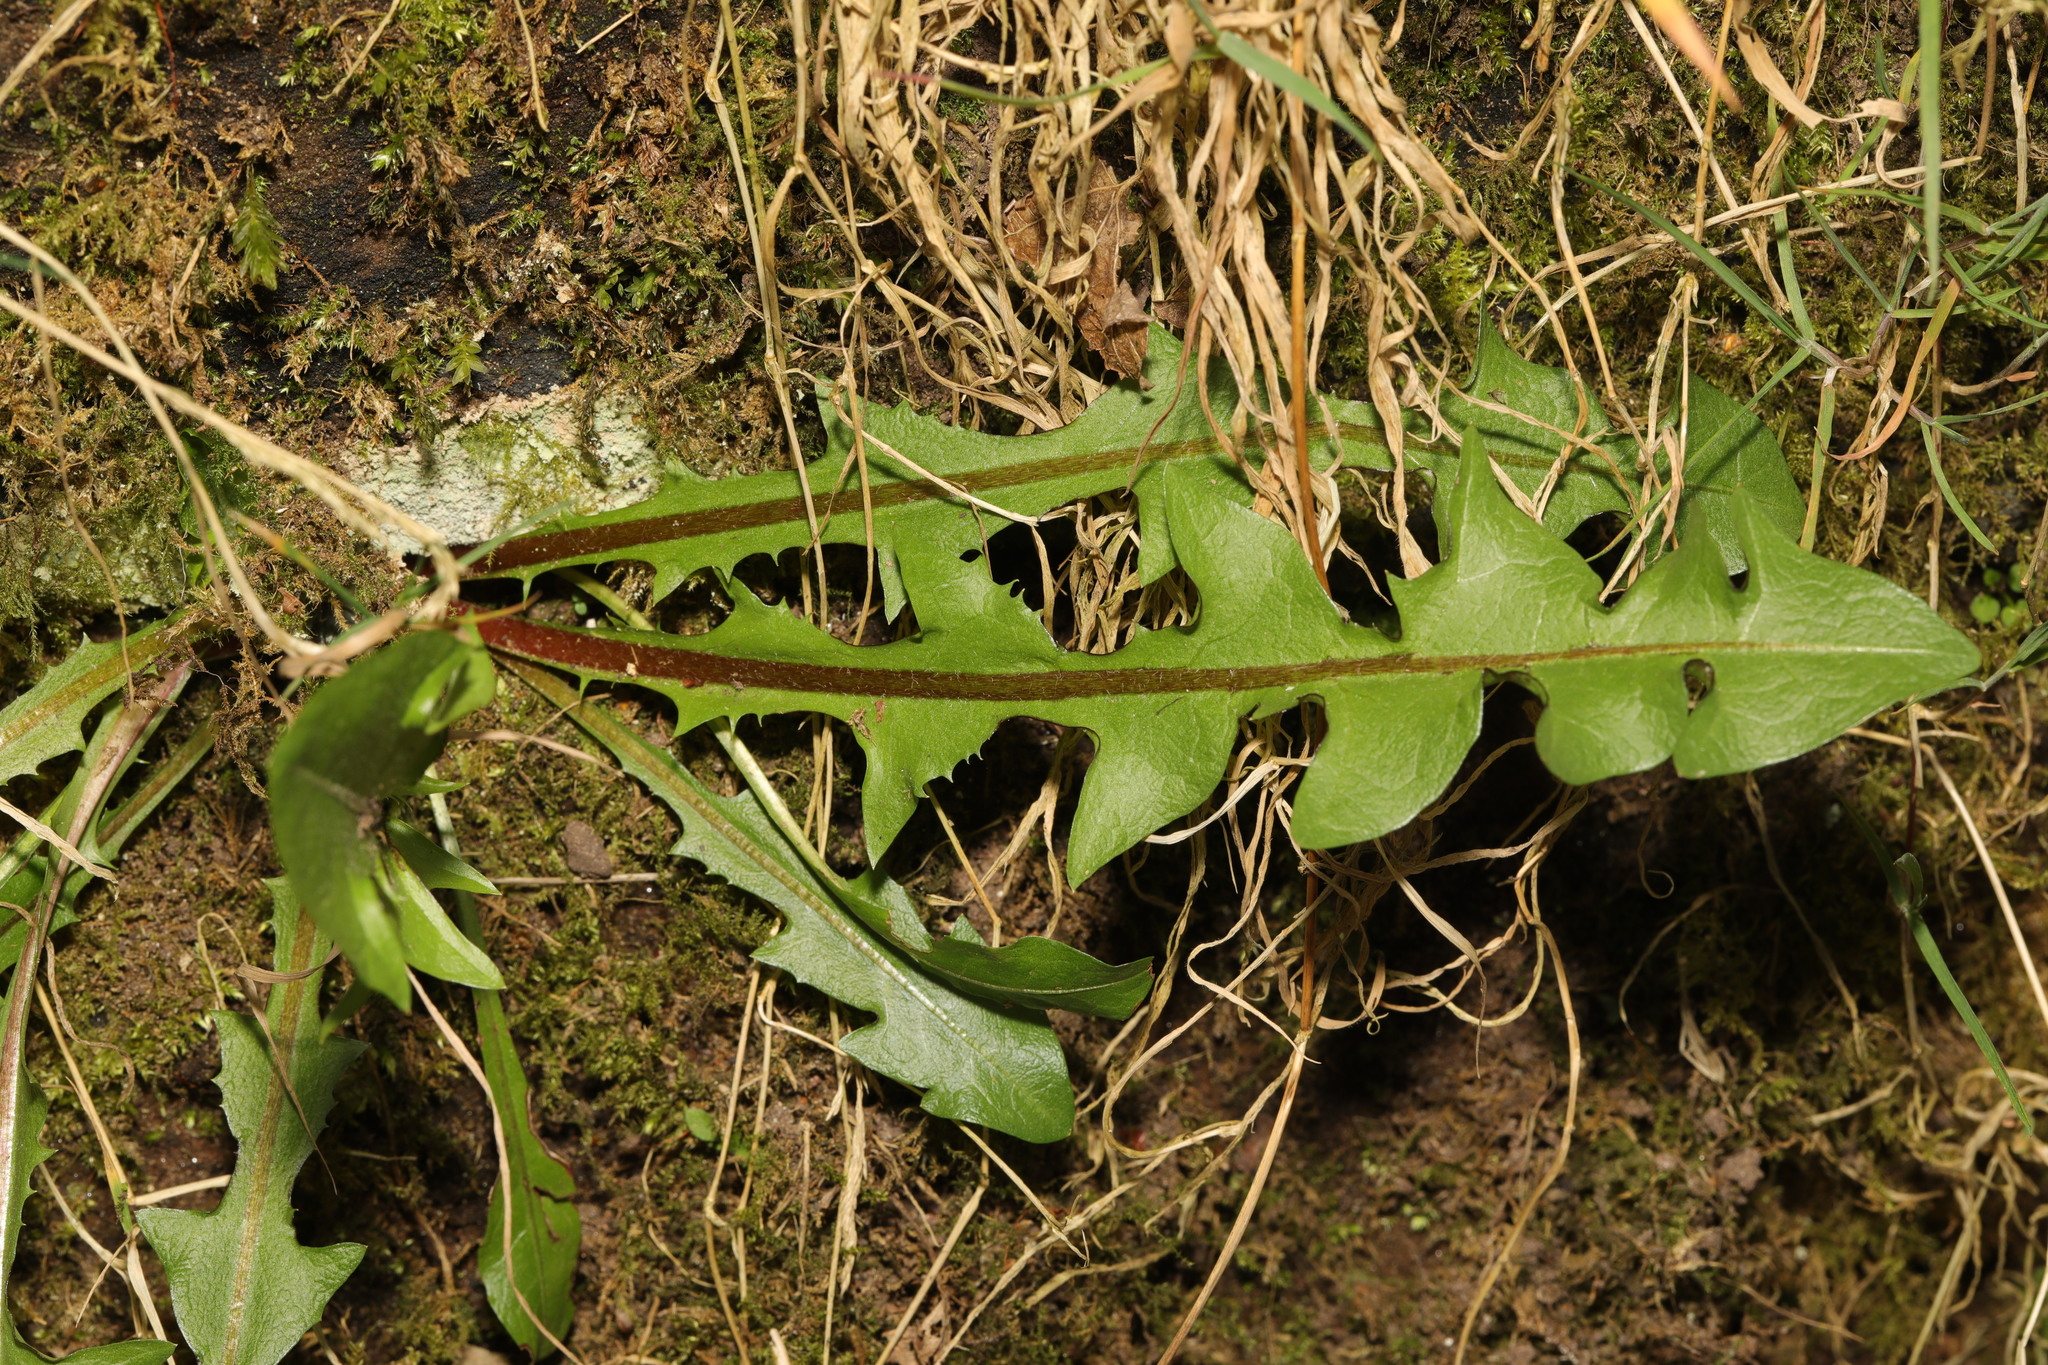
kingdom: Plantae
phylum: Tracheophyta
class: Magnoliopsida
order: Asterales
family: Asteraceae
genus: Taraxacum
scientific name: Taraxacum officinale
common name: Common dandelion
